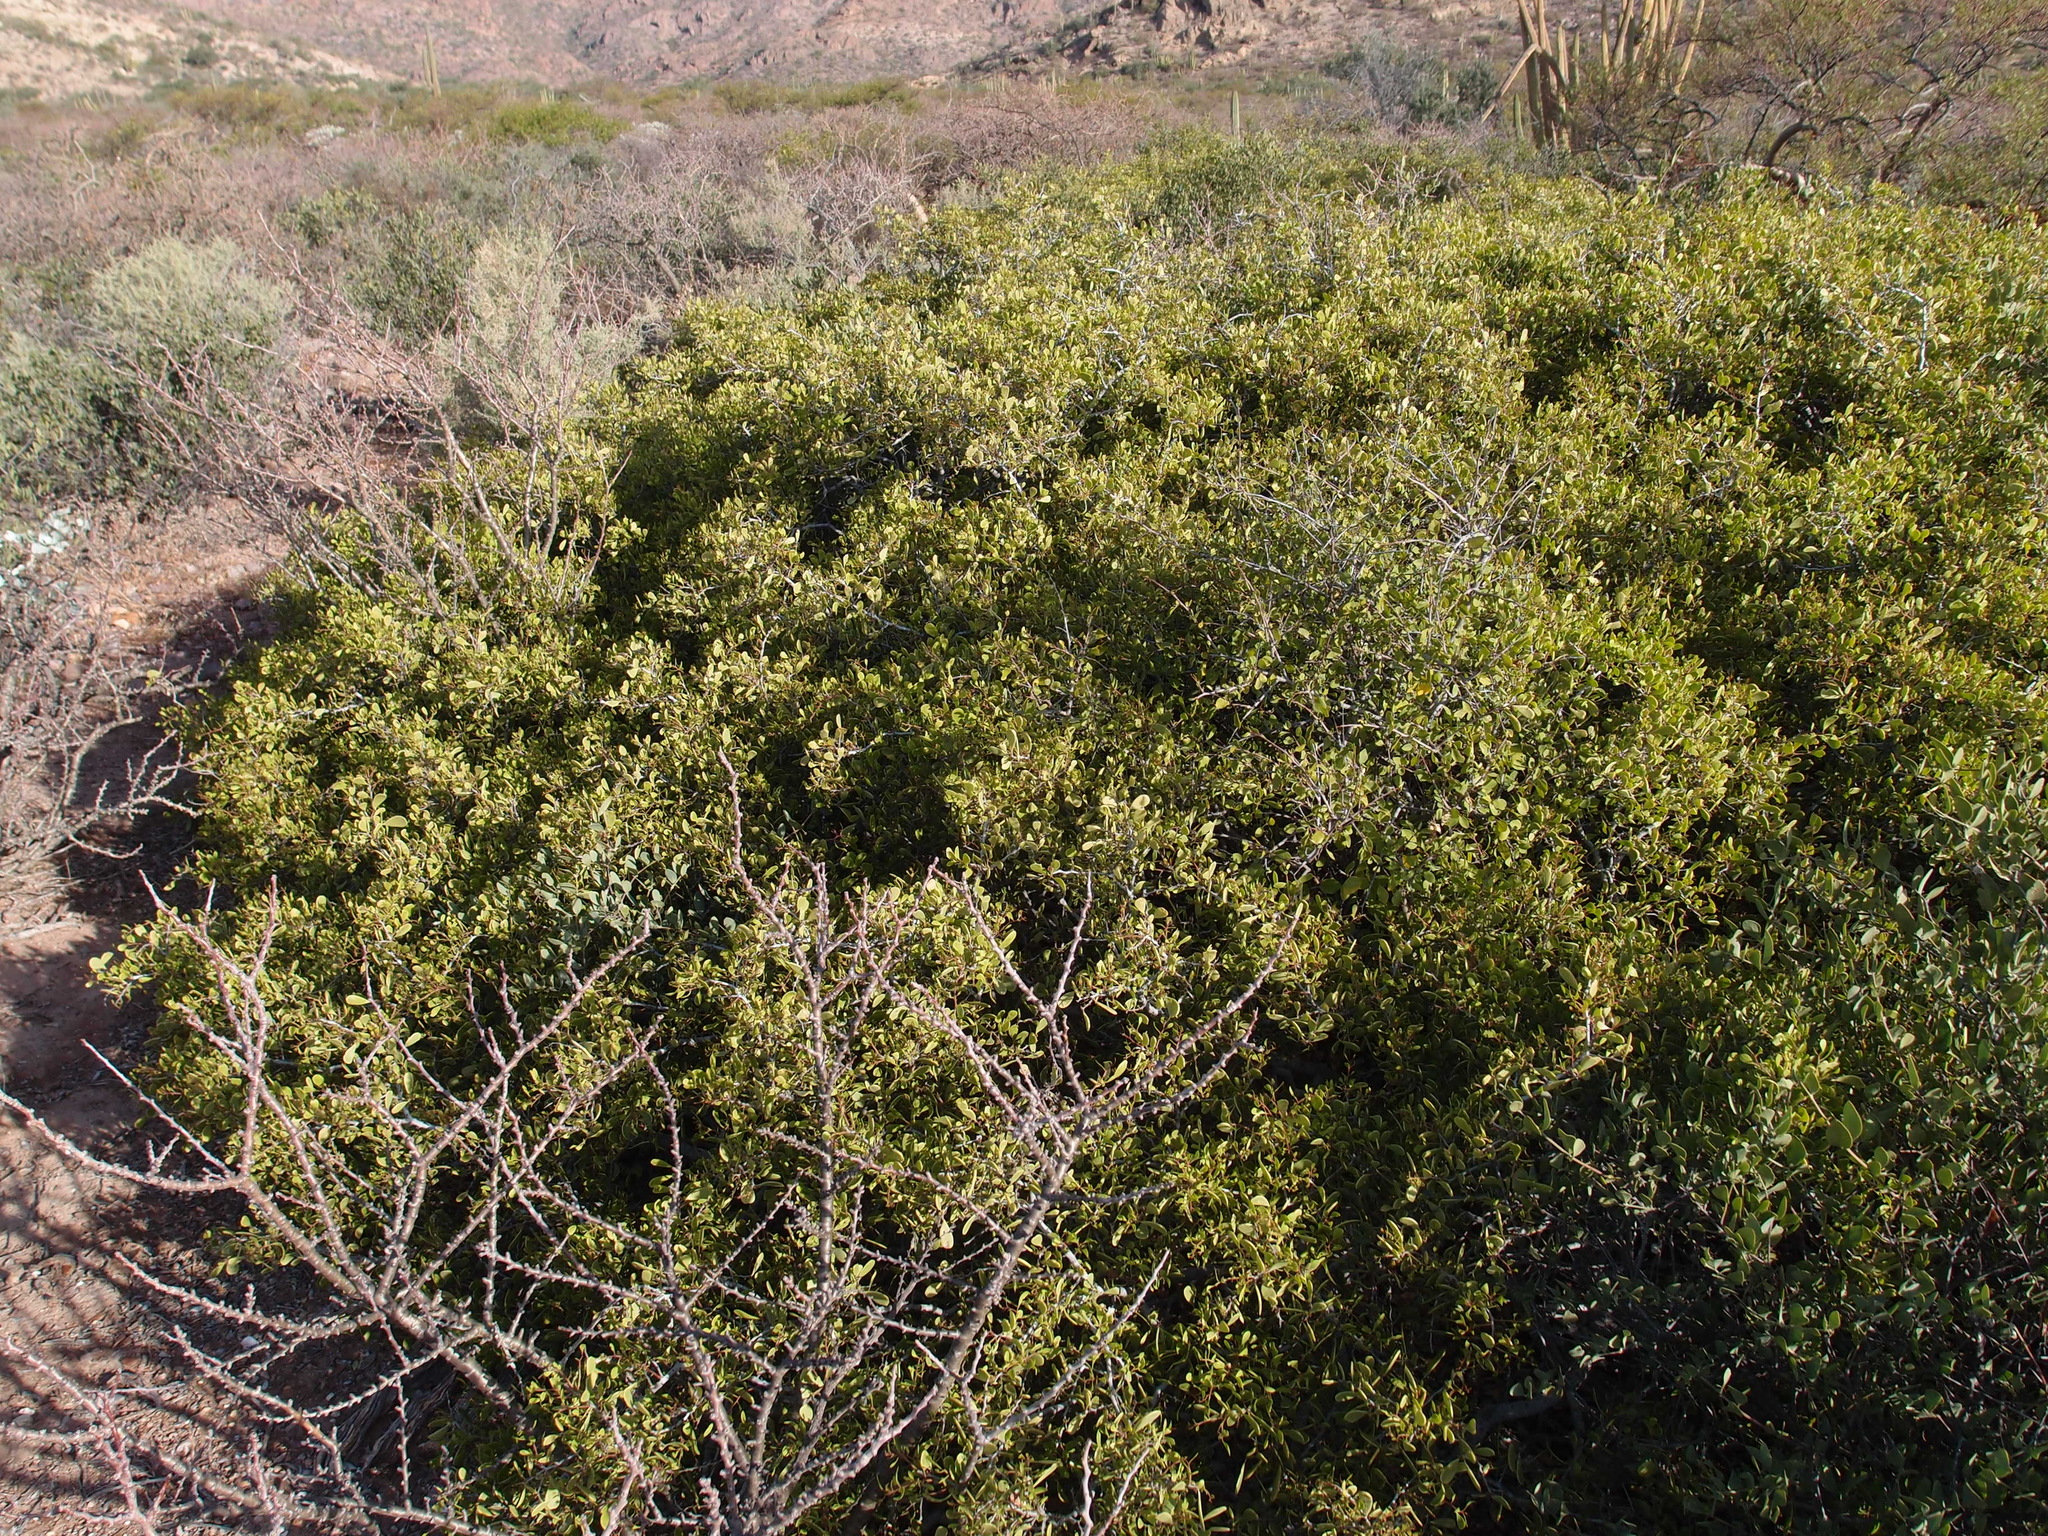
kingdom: Plantae
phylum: Tracheophyta
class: Magnoliopsida
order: Celastrales
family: Celastraceae
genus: Tricerma
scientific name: Tricerma phyllanthoides
